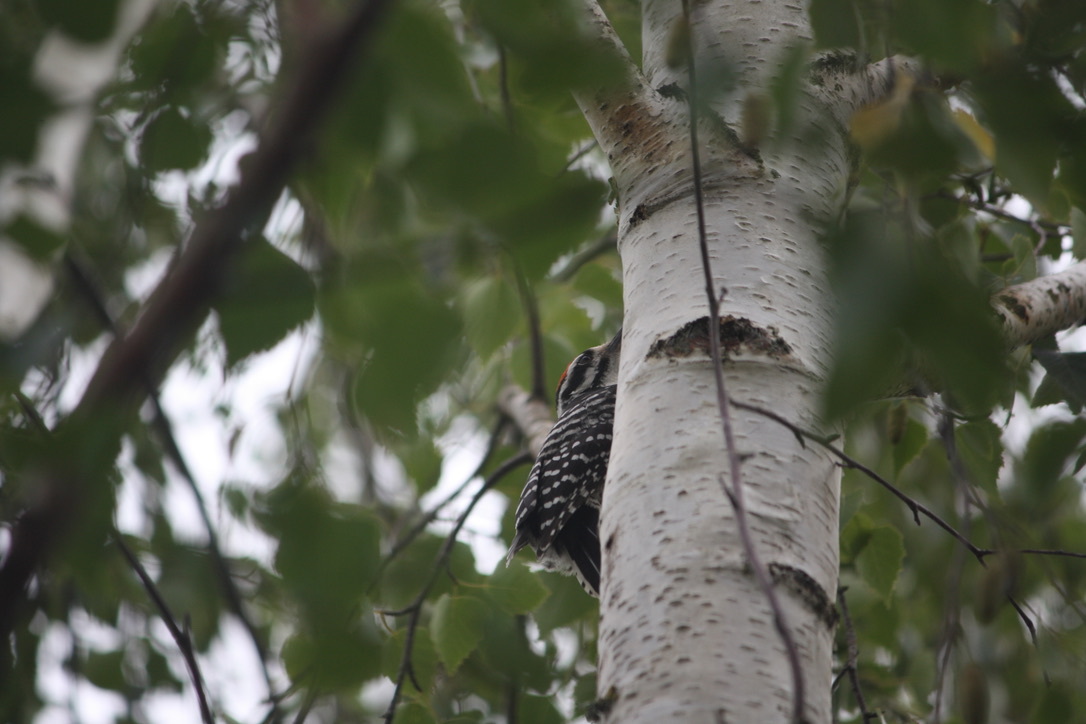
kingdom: Animalia
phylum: Chordata
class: Aves
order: Piciformes
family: Picidae
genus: Dryobates
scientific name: Dryobates nuttallii
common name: Nuttall's woodpecker
